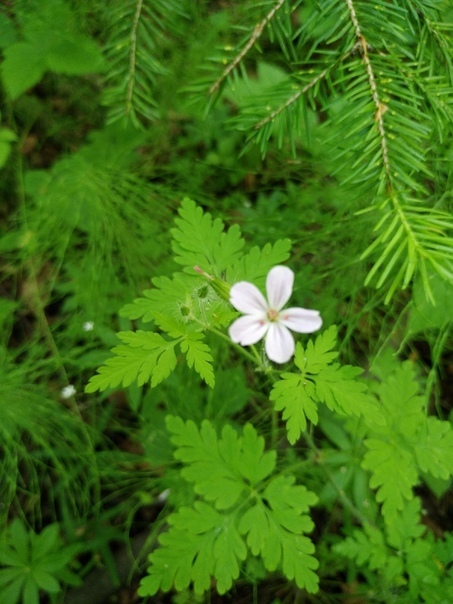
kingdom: Plantae
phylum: Tracheophyta
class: Magnoliopsida
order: Geraniales
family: Geraniaceae
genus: Geranium
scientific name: Geranium robertianum
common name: Herb-robert
